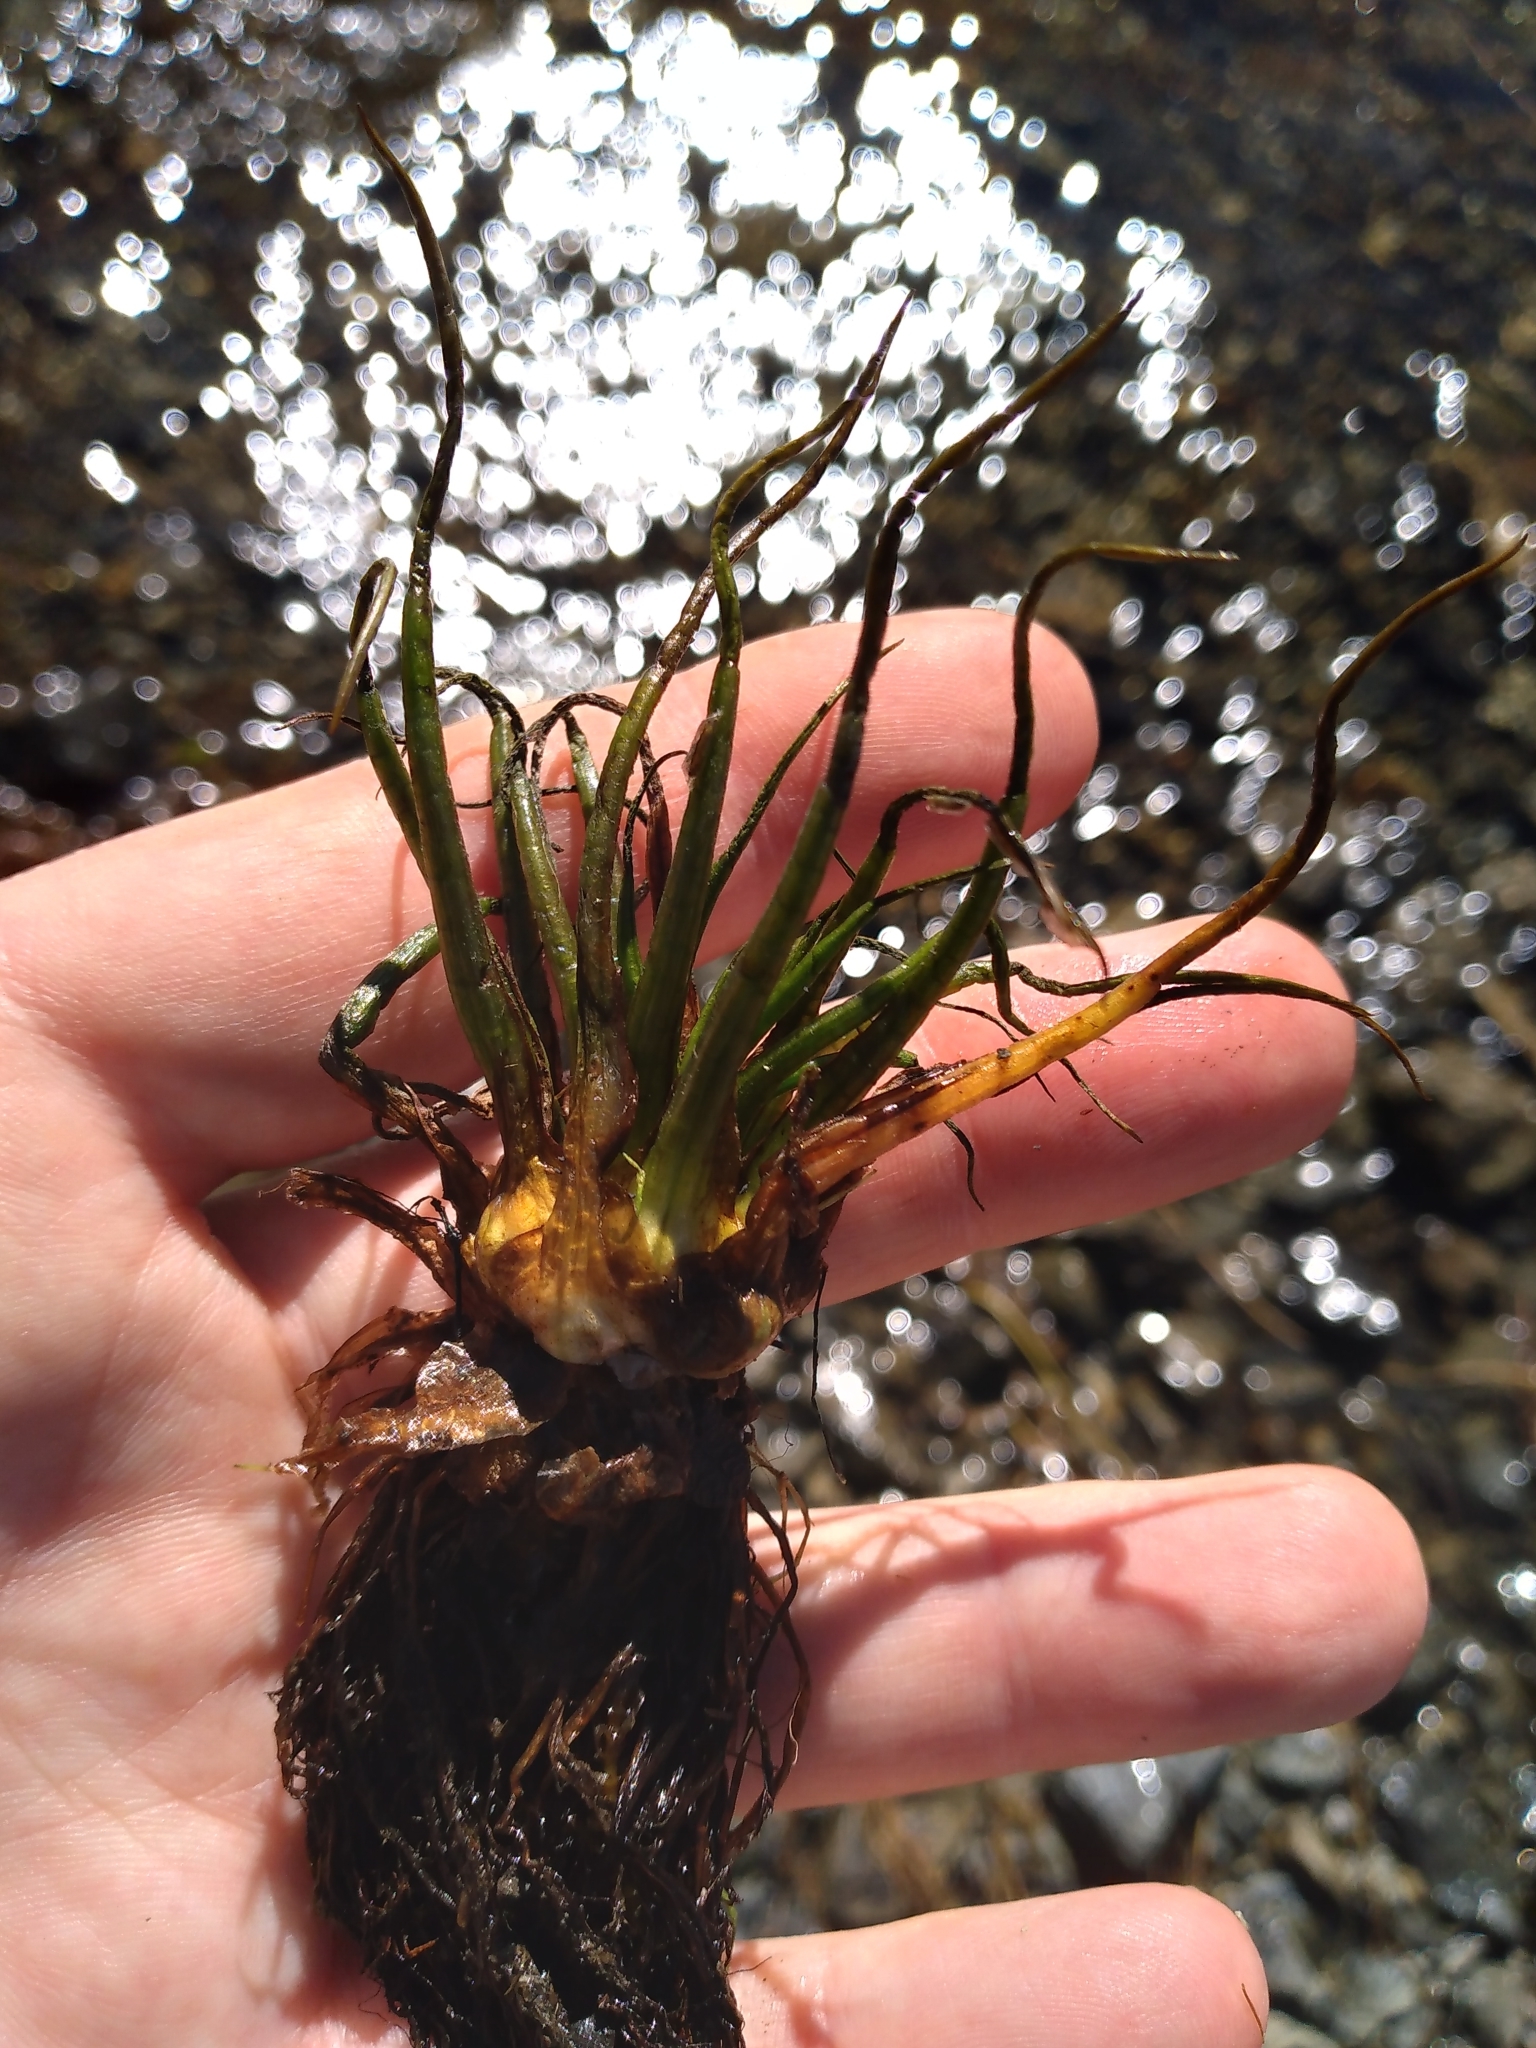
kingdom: Plantae
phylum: Tracheophyta
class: Lycopodiopsida
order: Isoetales
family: Isoetaceae
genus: Isoetes
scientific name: Isoetes alpina
